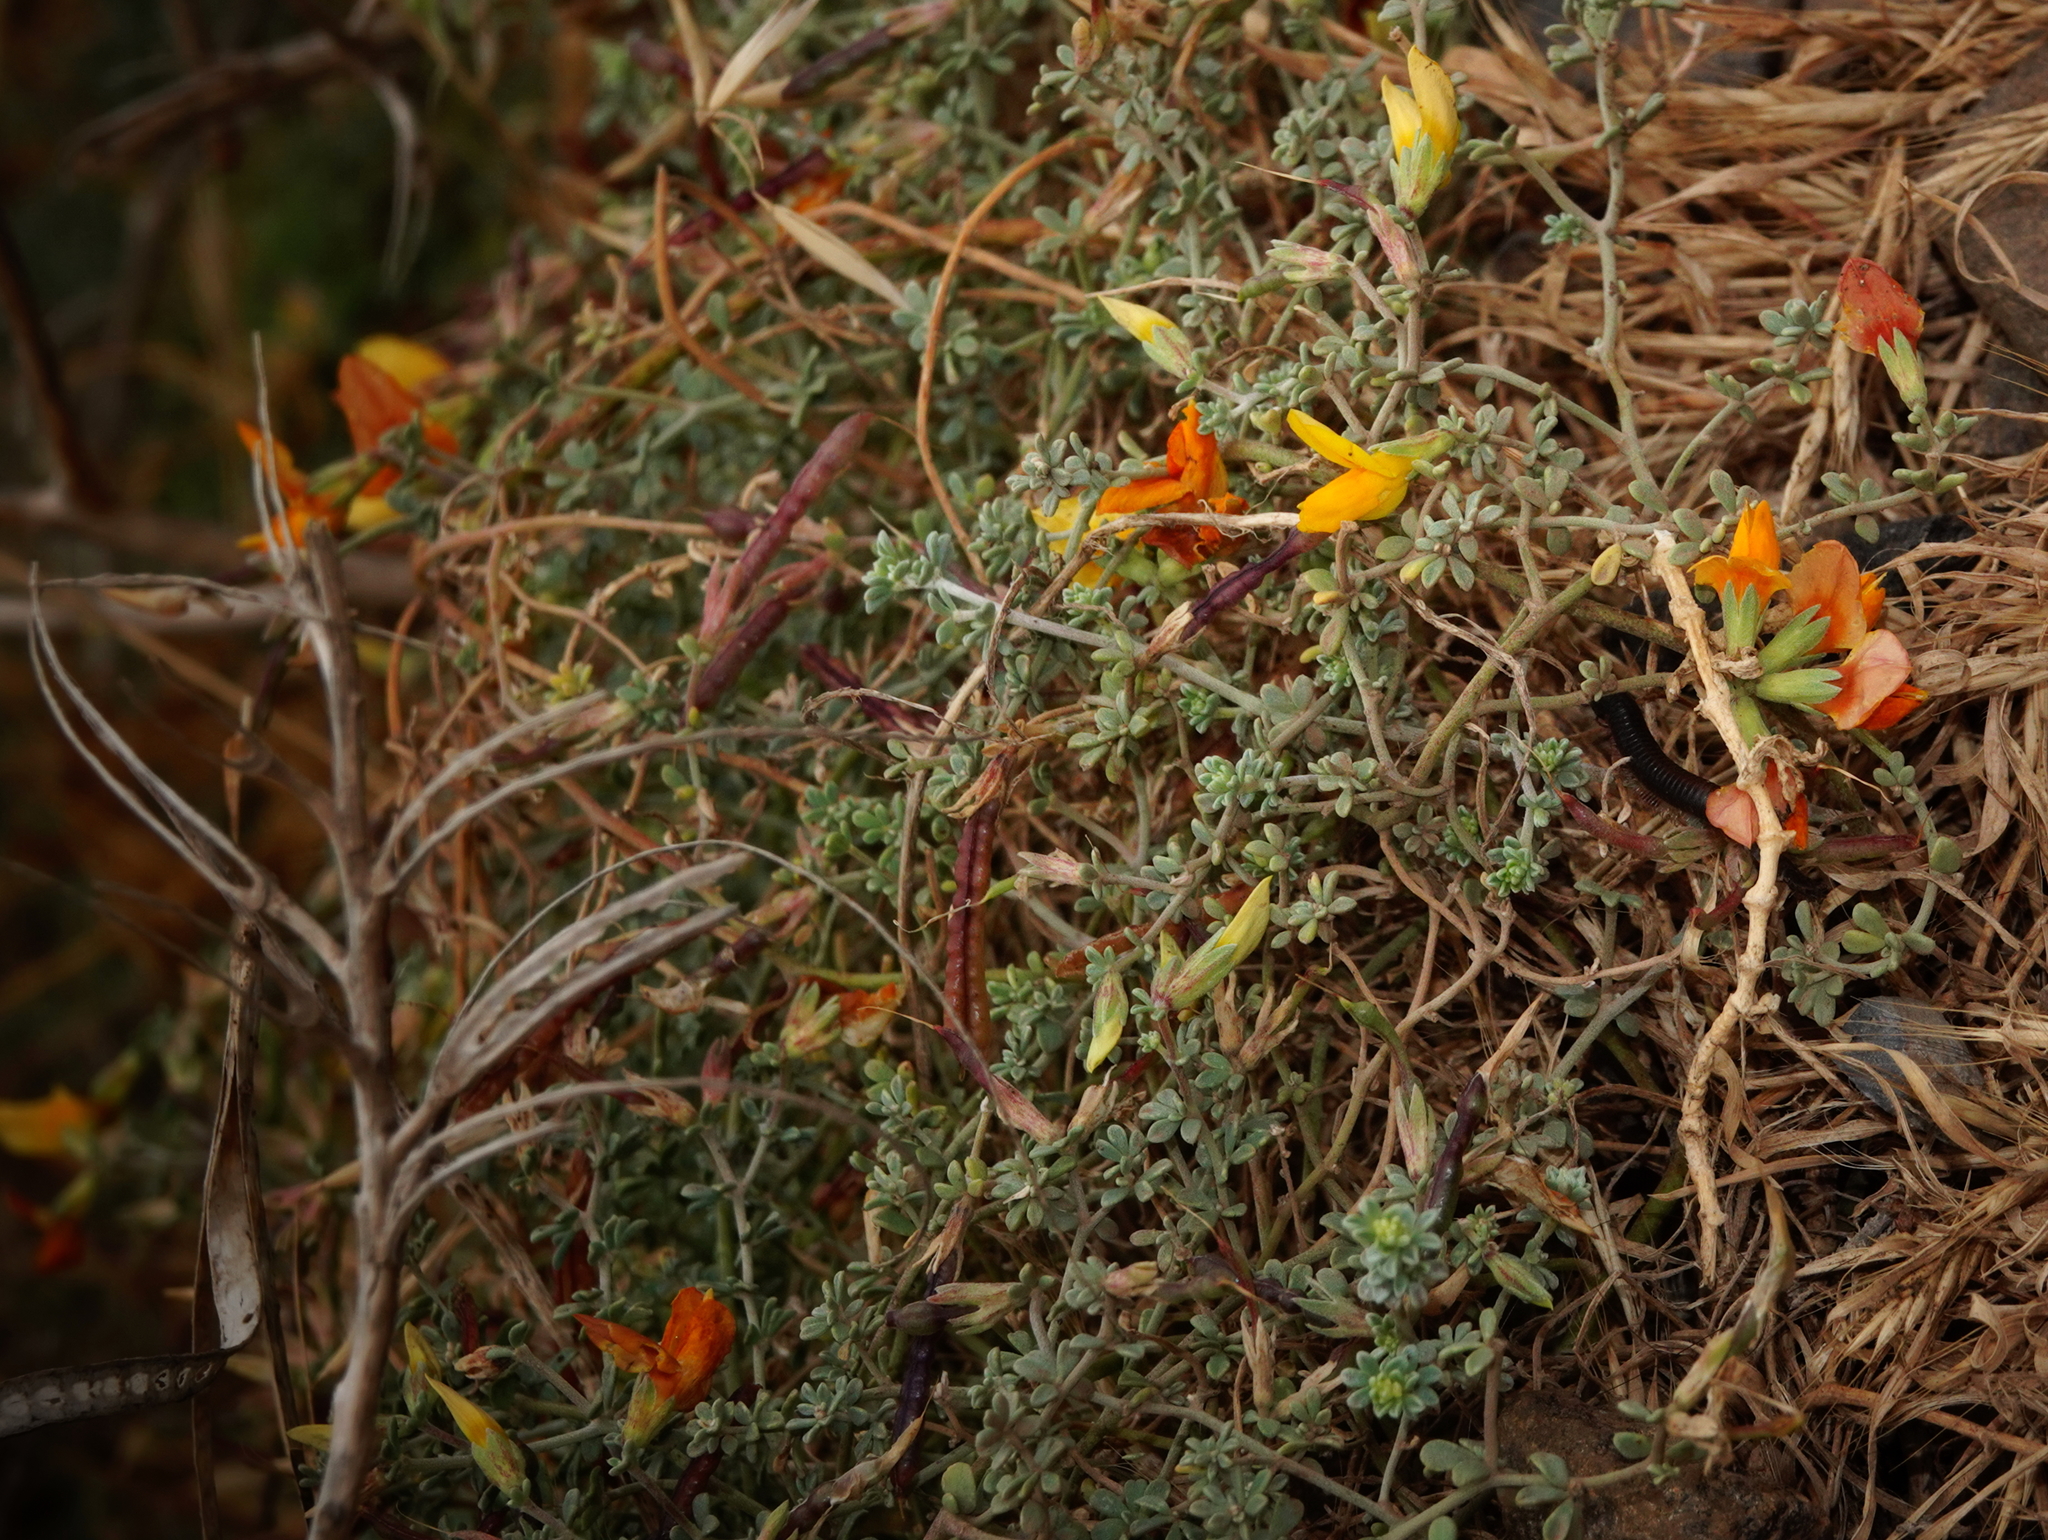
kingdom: Plantae
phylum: Tracheophyta
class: Magnoliopsida
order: Fabales
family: Fabaceae
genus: Lotus
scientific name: Lotus glaucus
